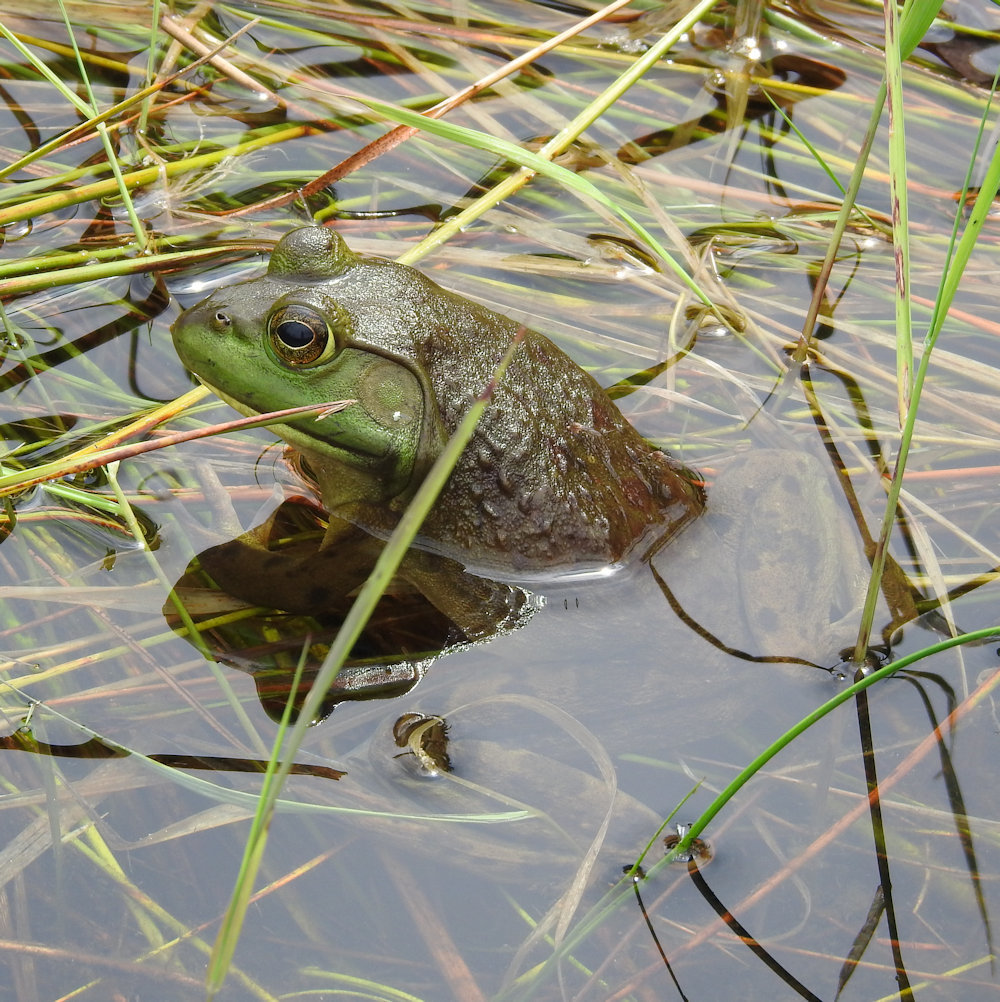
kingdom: Animalia
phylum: Chordata
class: Amphibia
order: Anura
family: Ranidae
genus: Lithobates
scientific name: Lithobates catesbeianus
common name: American bullfrog
